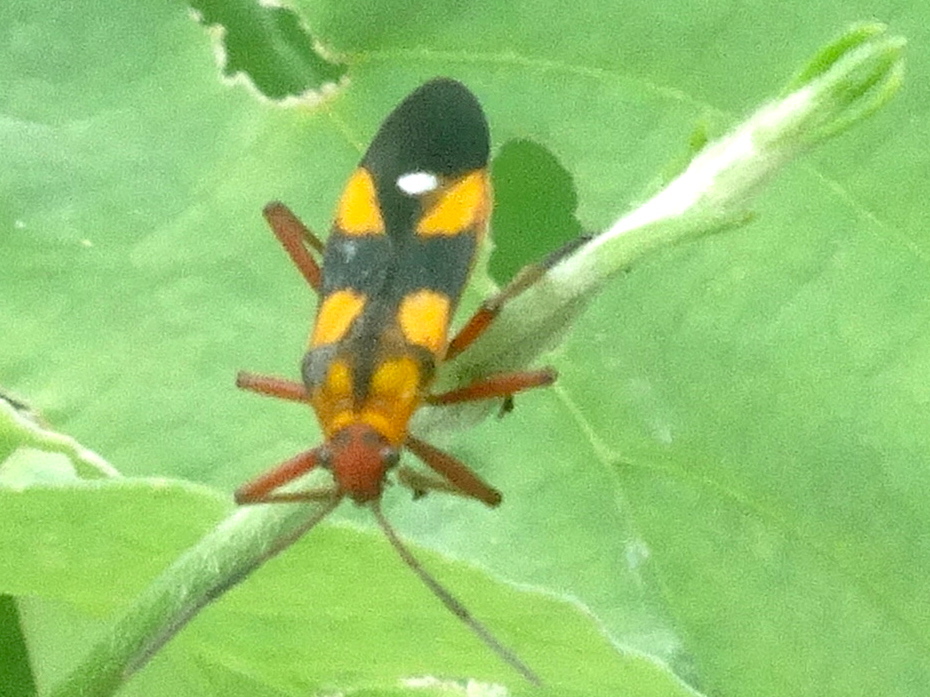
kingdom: Animalia
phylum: Arthropoda
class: Insecta
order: Hemiptera
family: Lygaeidae
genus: Oncopeltus
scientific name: Oncopeltus sexmaculatus
